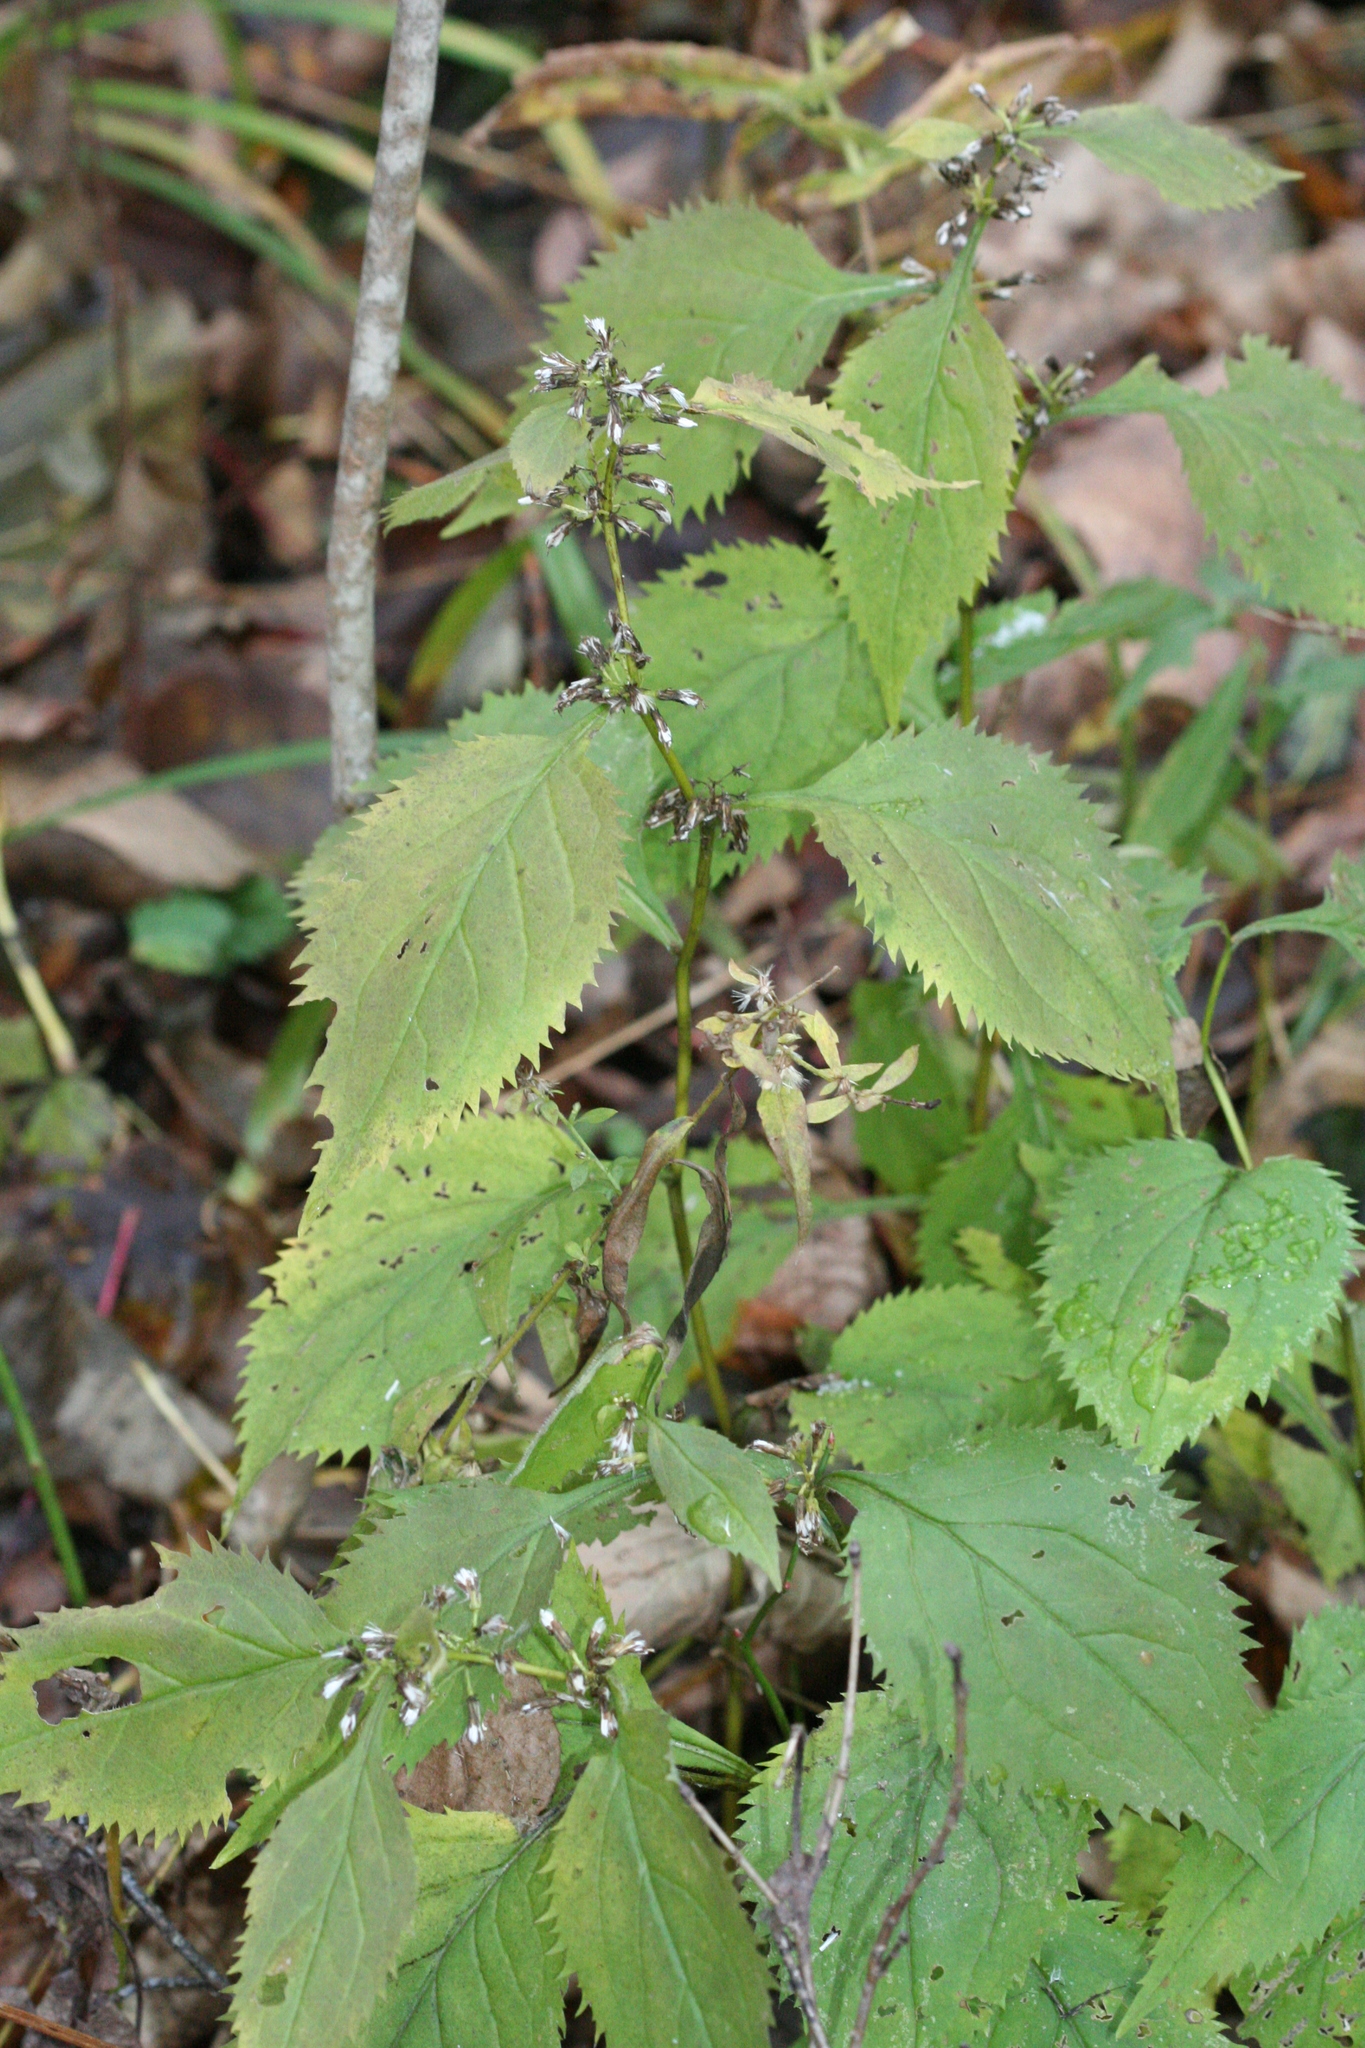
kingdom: Plantae
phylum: Tracheophyta
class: Magnoliopsida
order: Asterales
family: Asteraceae
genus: Solidago
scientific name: Solidago flexicaulis
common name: Zig-zag goldenrod
